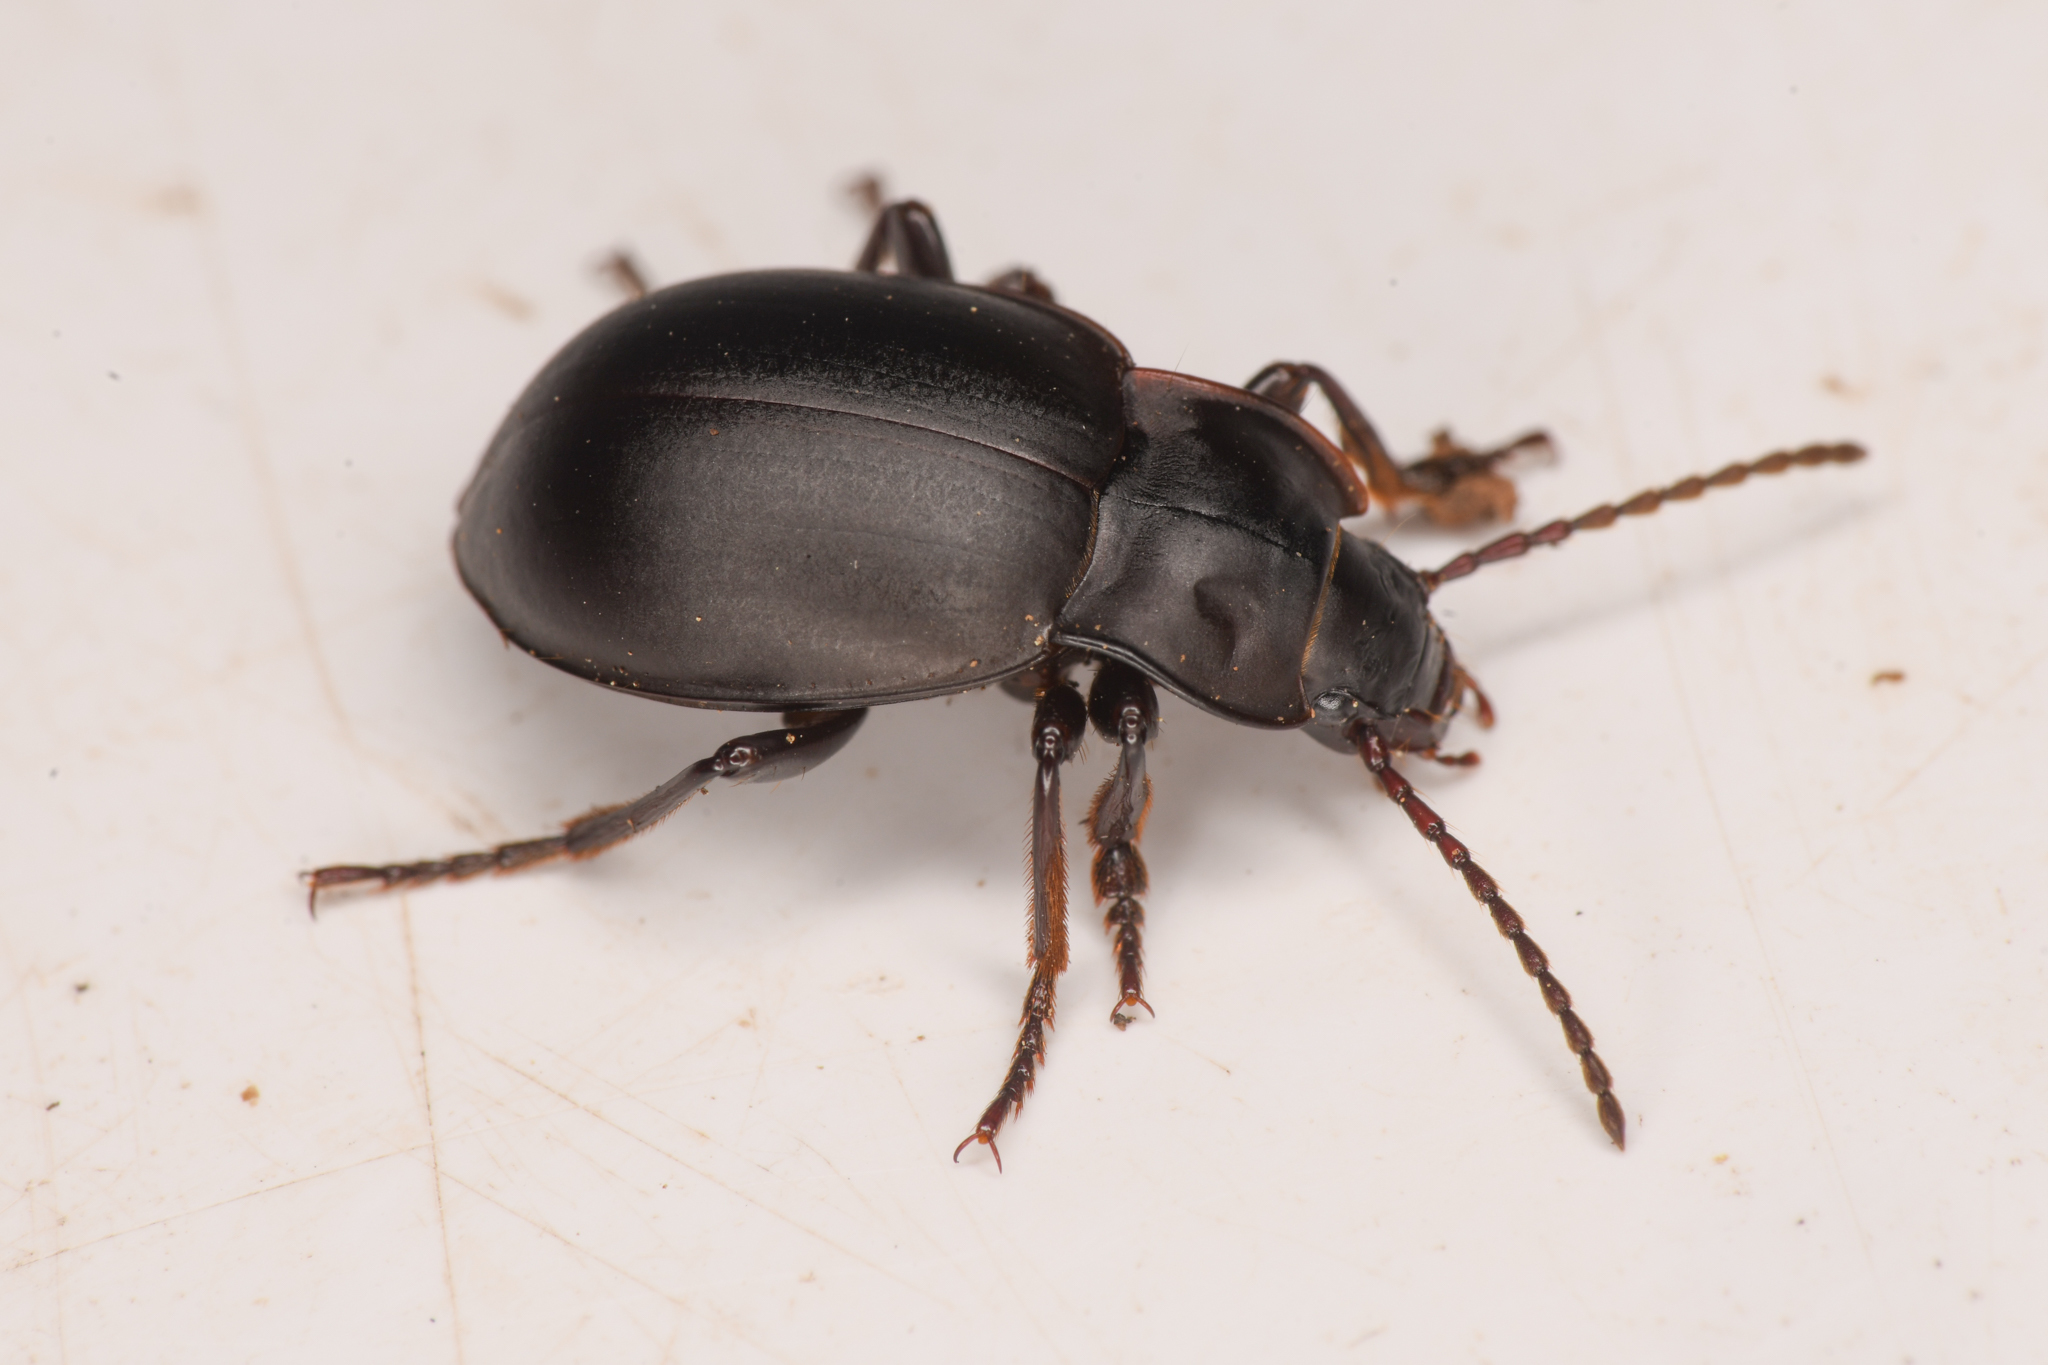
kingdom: Animalia
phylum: Arthropoda
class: Insecta
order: Coleoptera
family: Carabidae
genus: Metrius
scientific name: Metrius contractus
